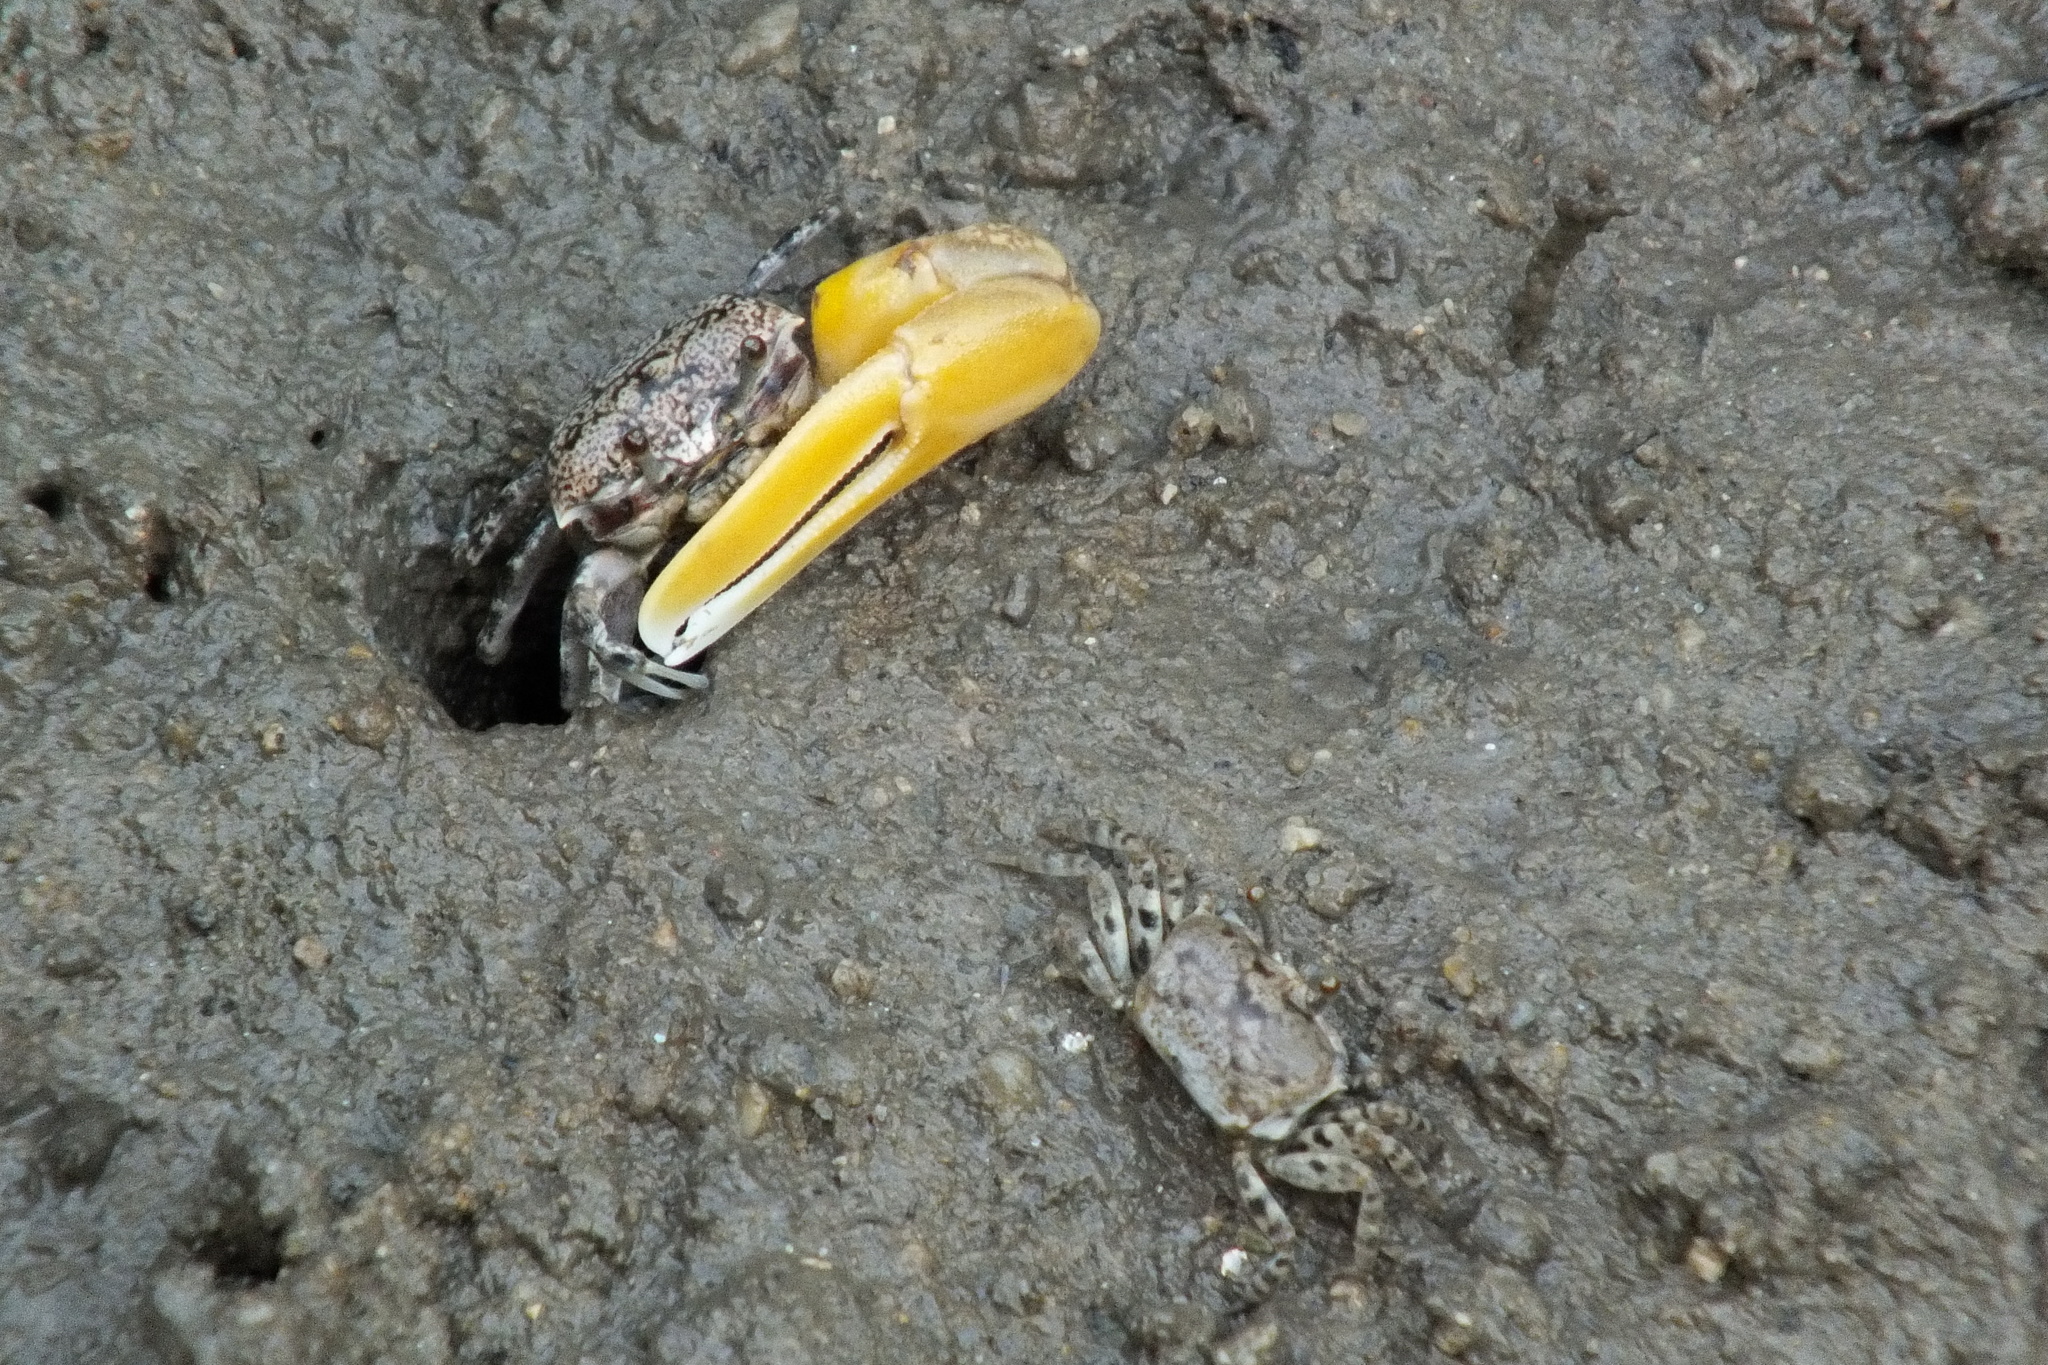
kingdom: Animalia
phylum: Arthropoda
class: Malacostraca
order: Decapoda
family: Ocypodidae
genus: Austruca
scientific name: Austruca perplexa
